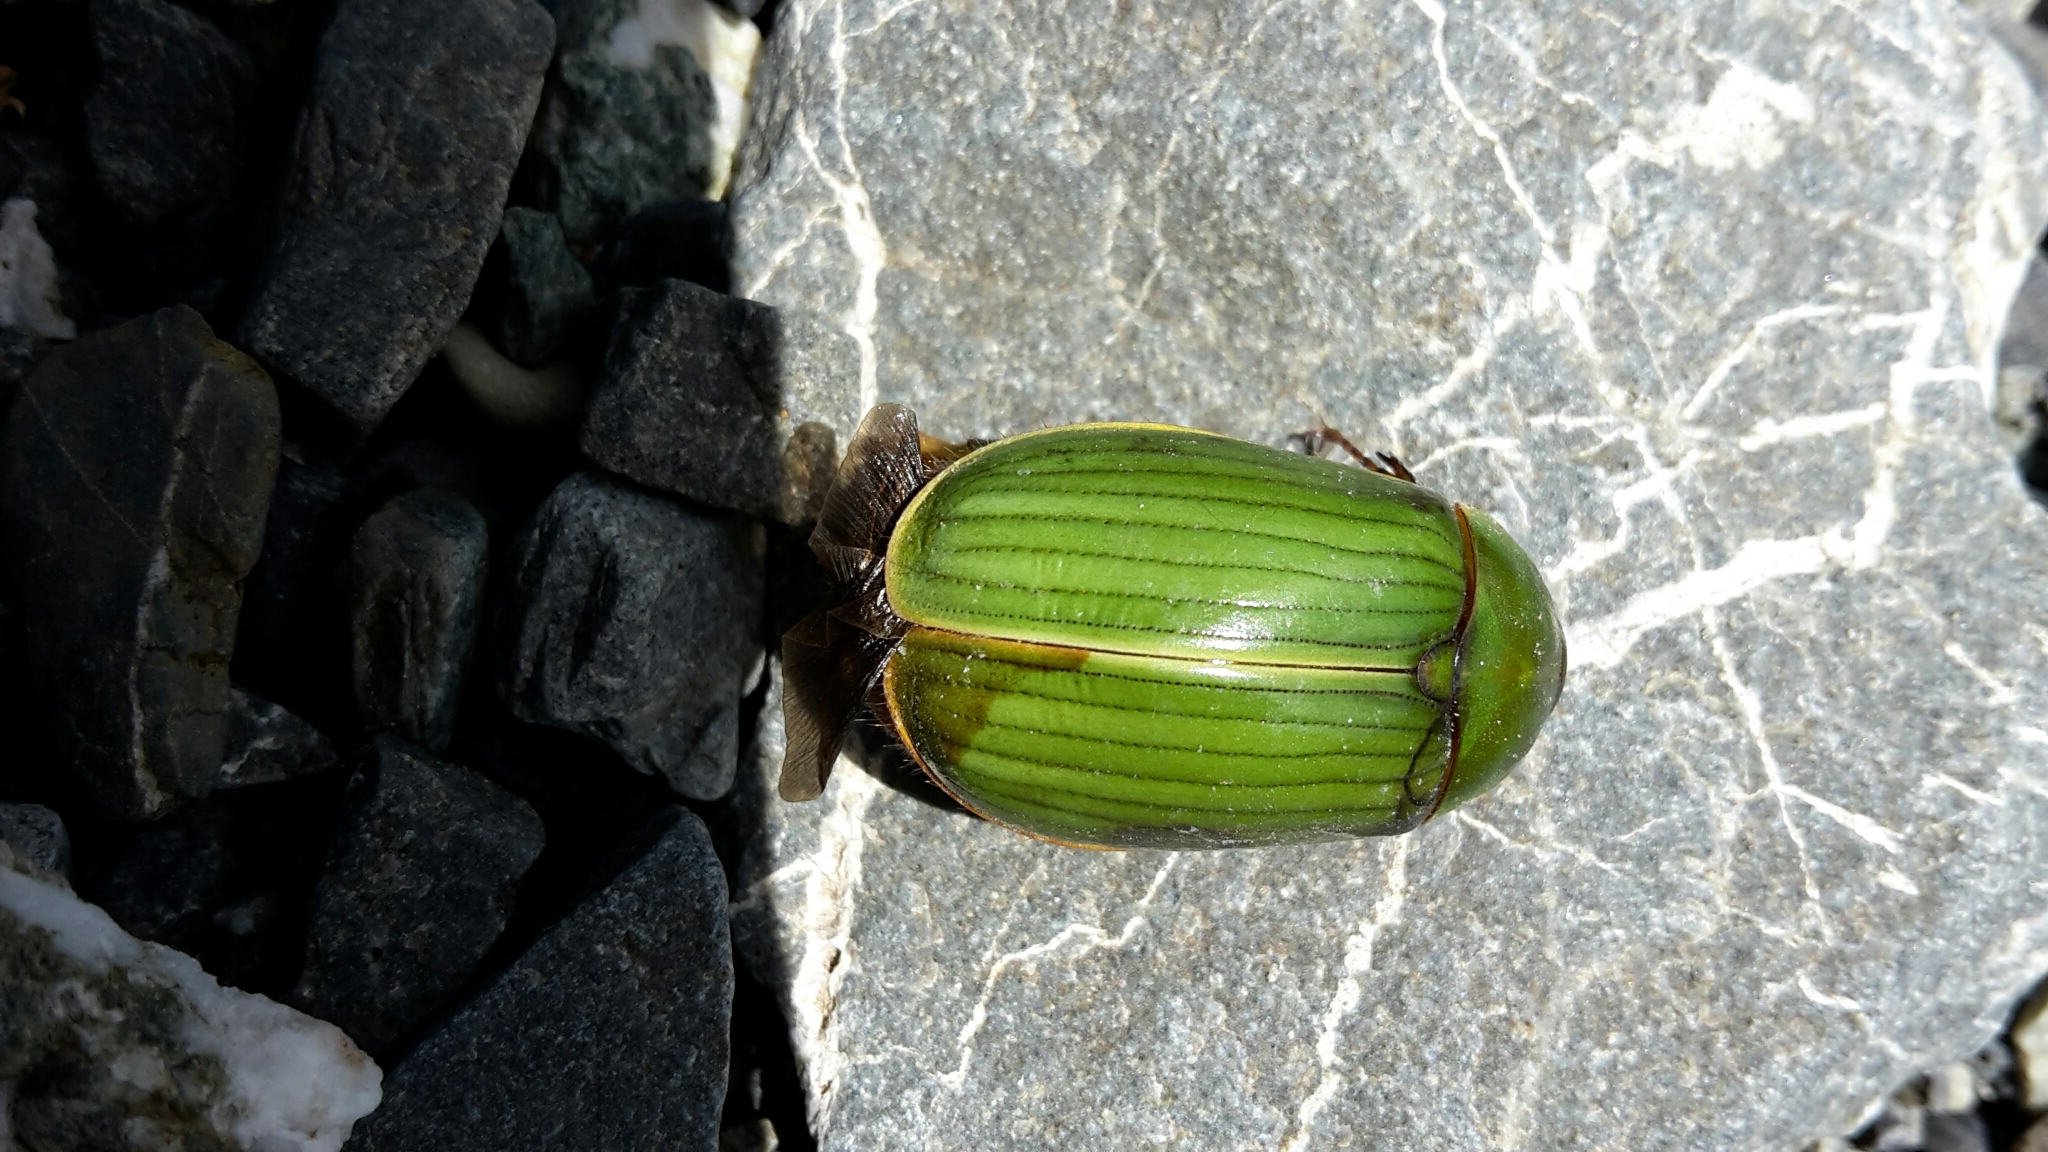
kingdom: Animalia
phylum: Arthropoda
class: Insecta
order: Coleoptera
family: Scarabaeidae
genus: Stethaspis
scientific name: Stethaspis suturalis
